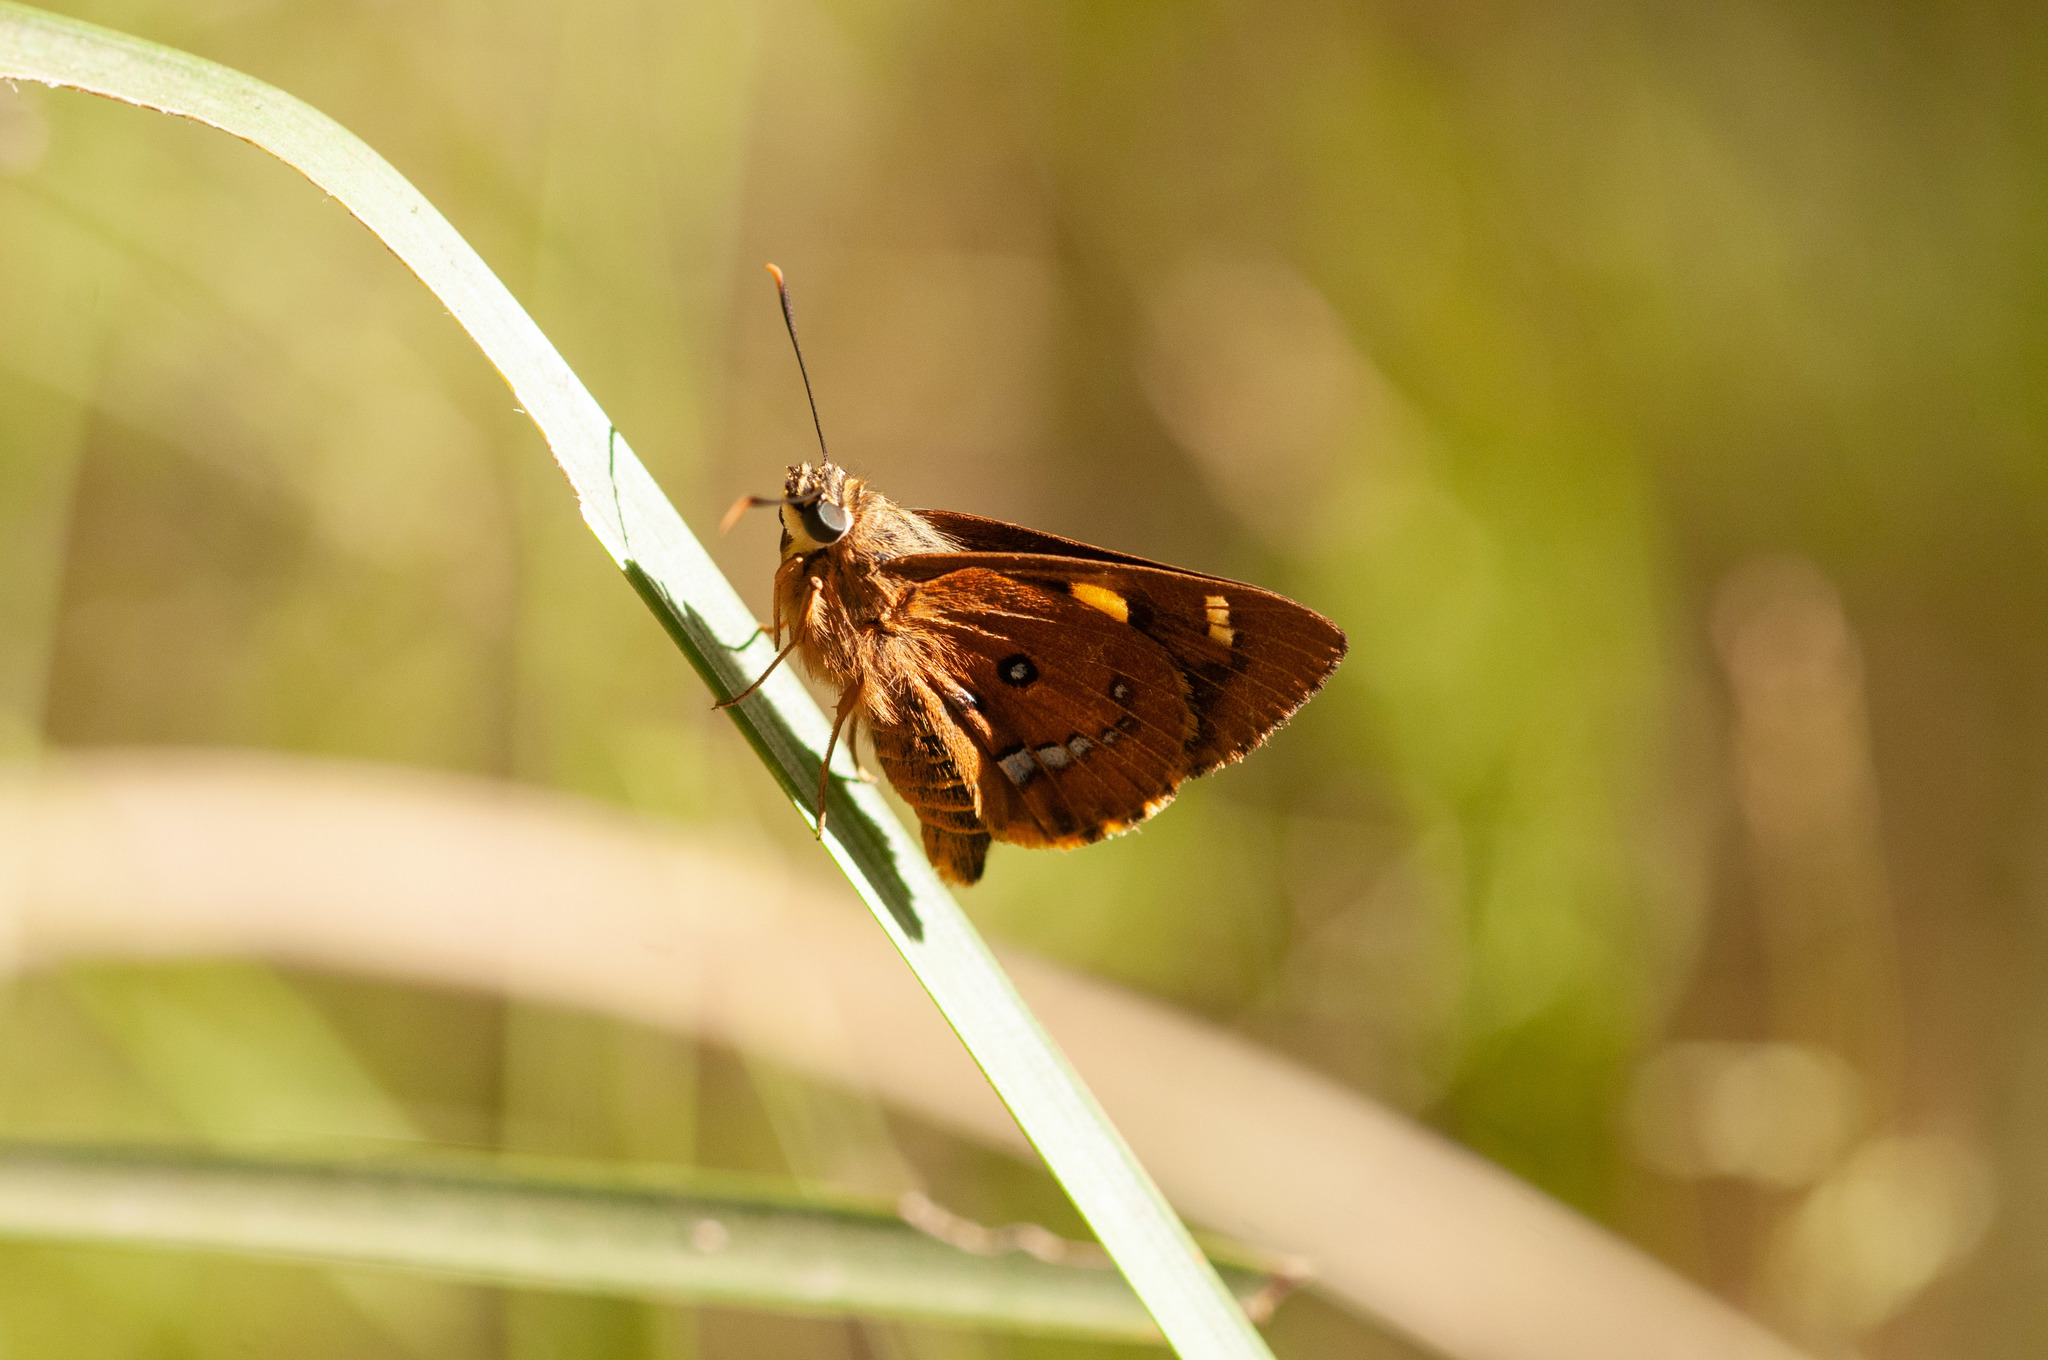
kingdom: Animalia
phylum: Arthropoda
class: Insecta
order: Lepidoptera
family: Hesperiidae
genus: Trapezites
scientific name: Trapezites symmomus
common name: Splendid ochre
